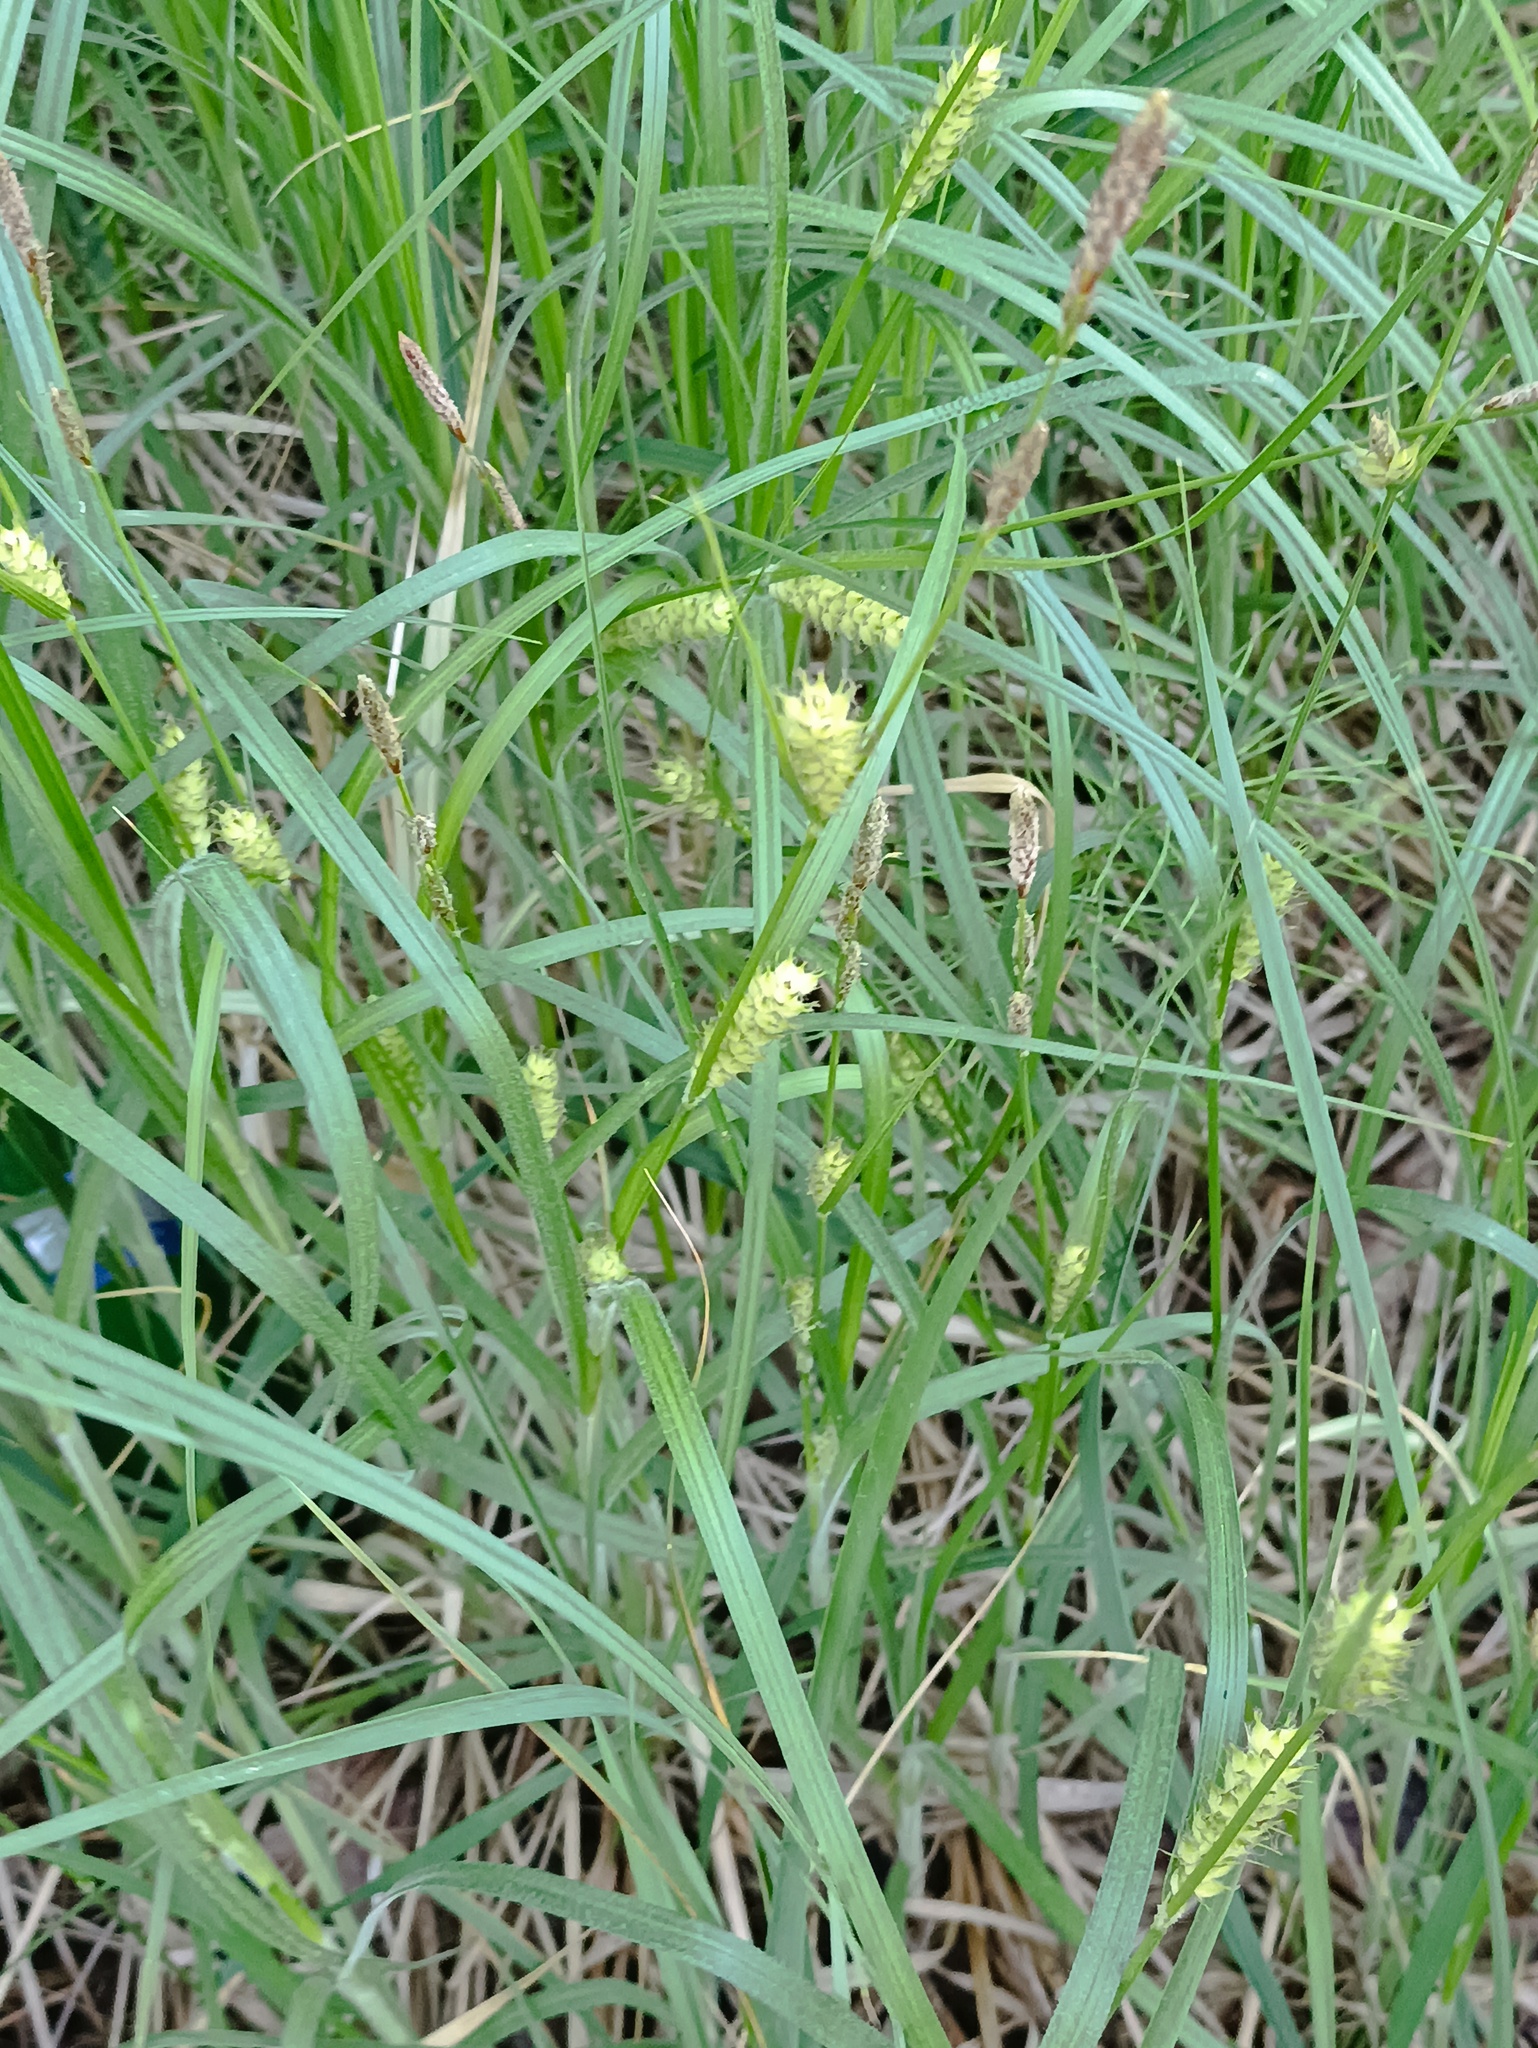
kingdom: Plantae
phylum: Tracheophyta
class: Liliopsida
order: Poales
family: Cyperaceae
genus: Carex
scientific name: Carex hirta
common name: Hairy sedge
